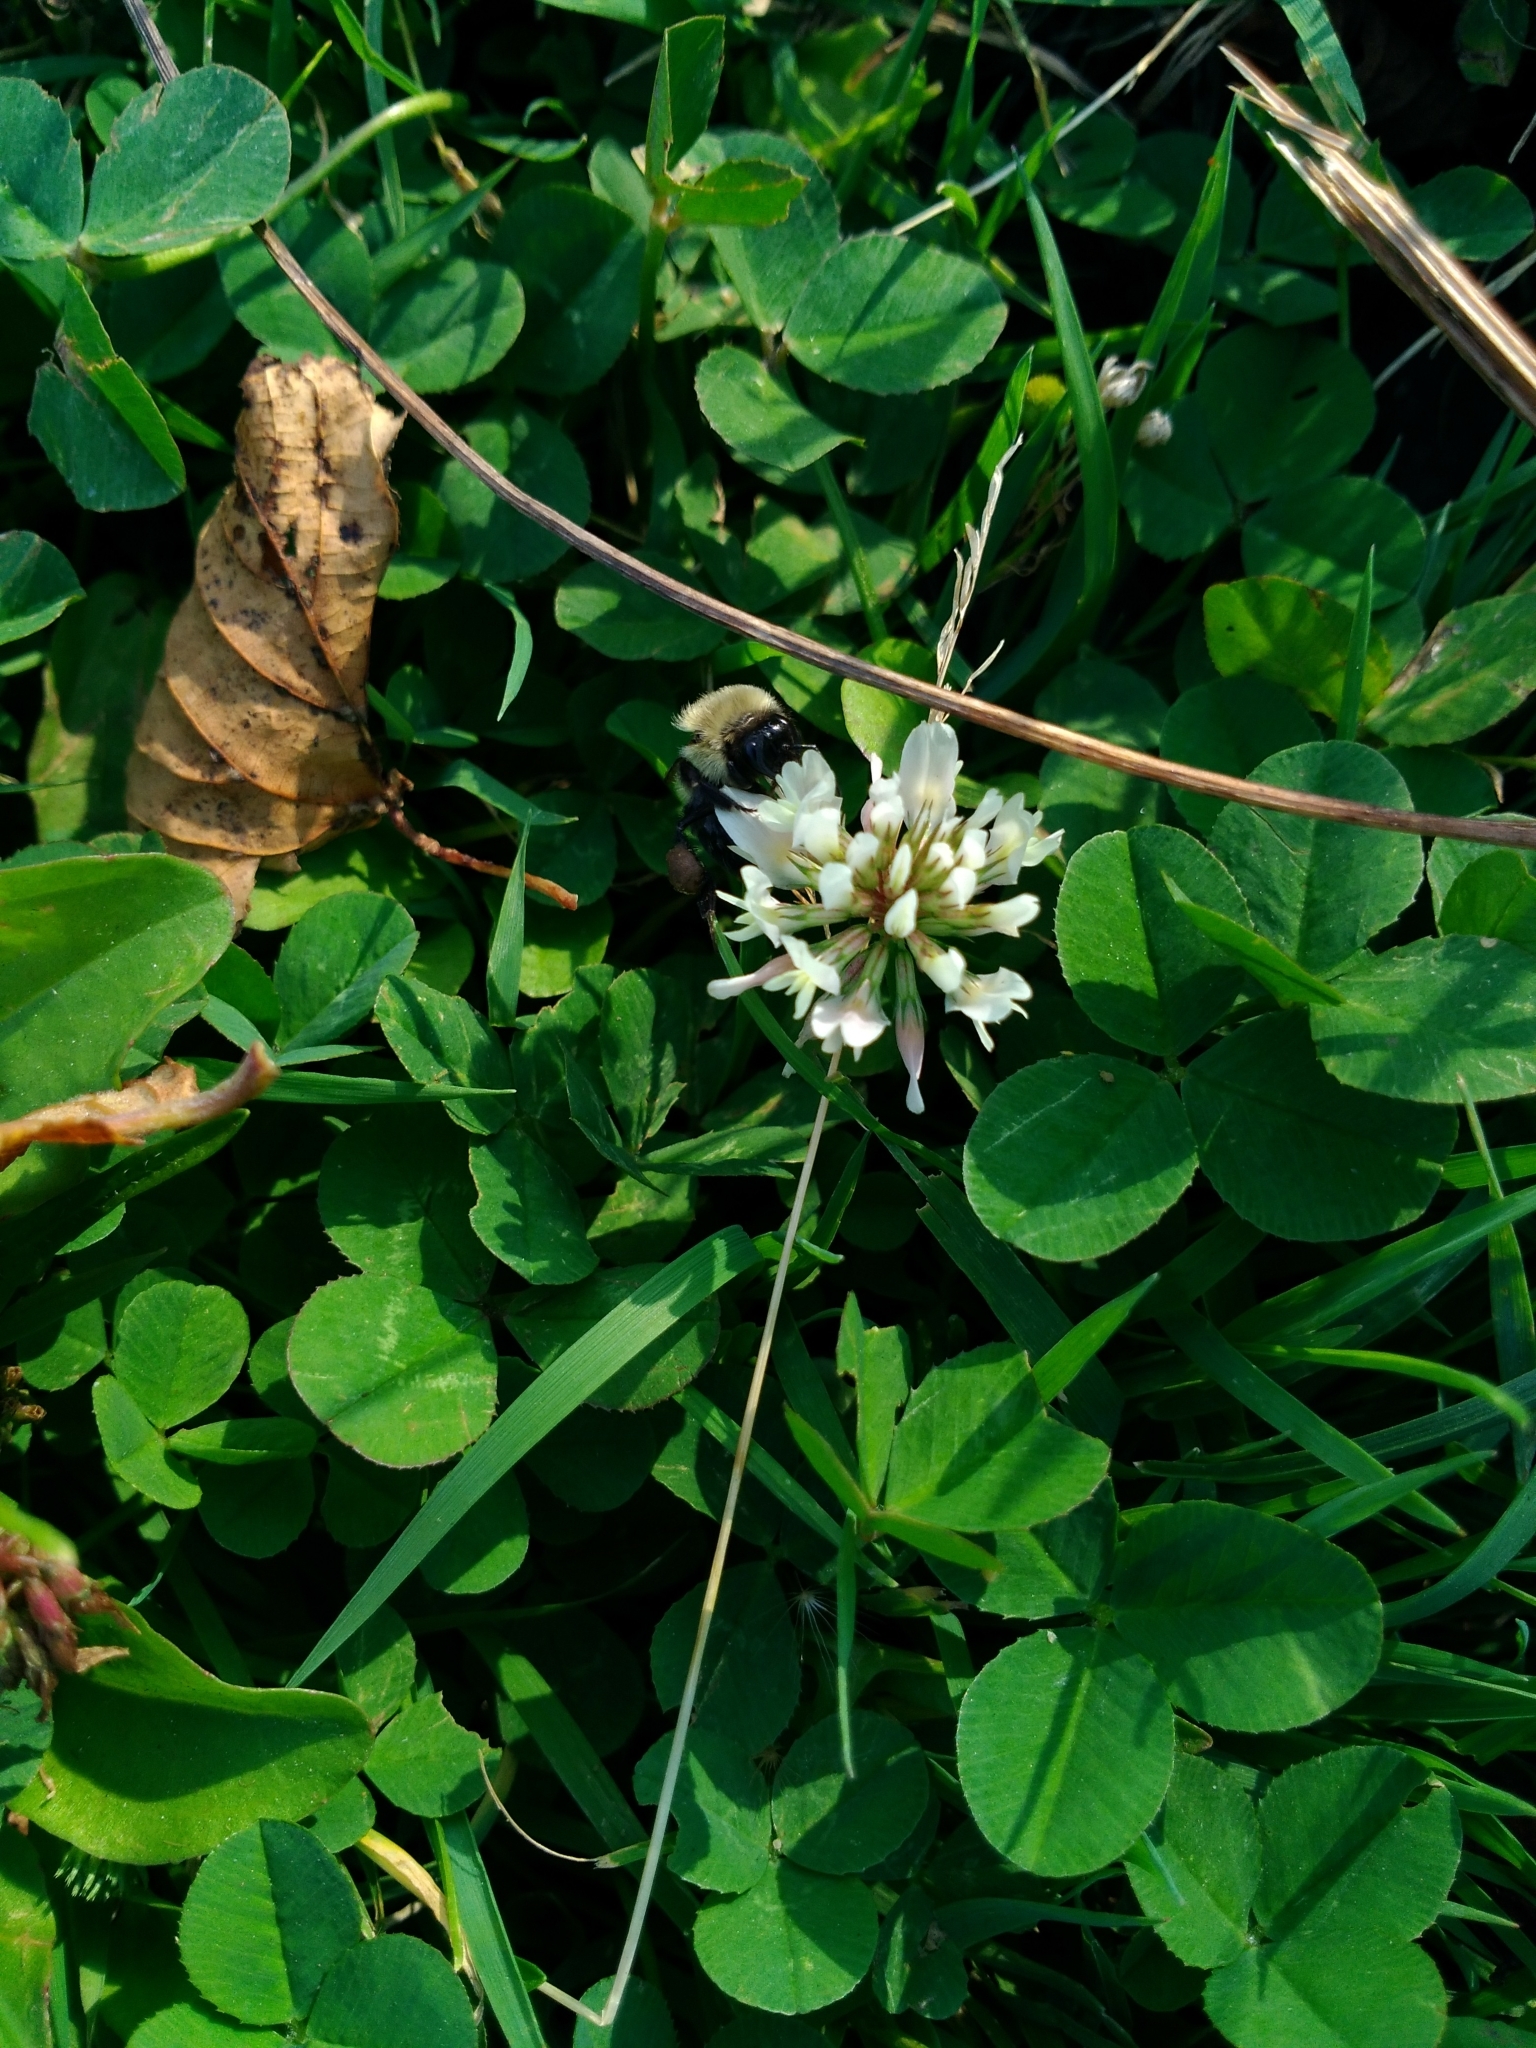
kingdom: Animalia
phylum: Arthropoda
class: Insecta
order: Hymenoptera
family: Apidae
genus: Bombus
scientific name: Bombus impatiens
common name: Common eastern bumble bee
